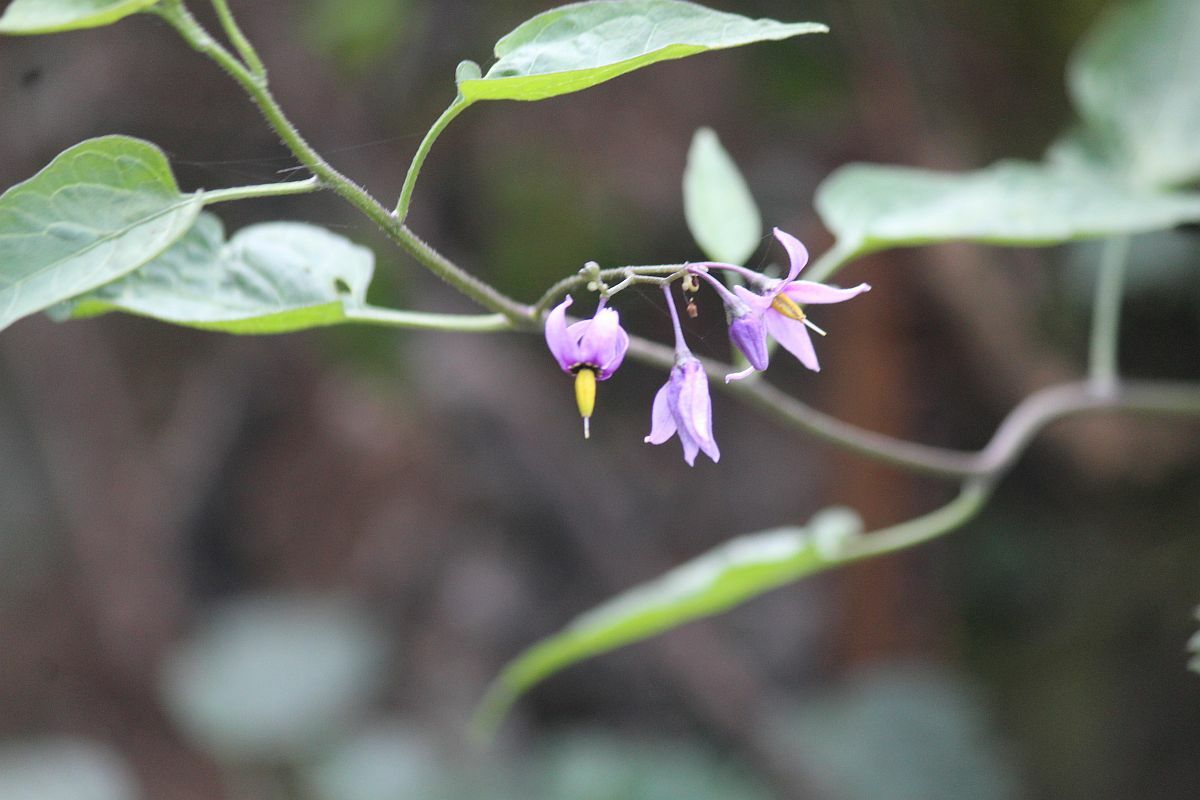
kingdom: Plantae
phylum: Tracheophyta
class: Magnoliopsida
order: Solanales
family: Solanaceae
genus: Solanum
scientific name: Solanum dulcamara
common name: Climbing nightshade
